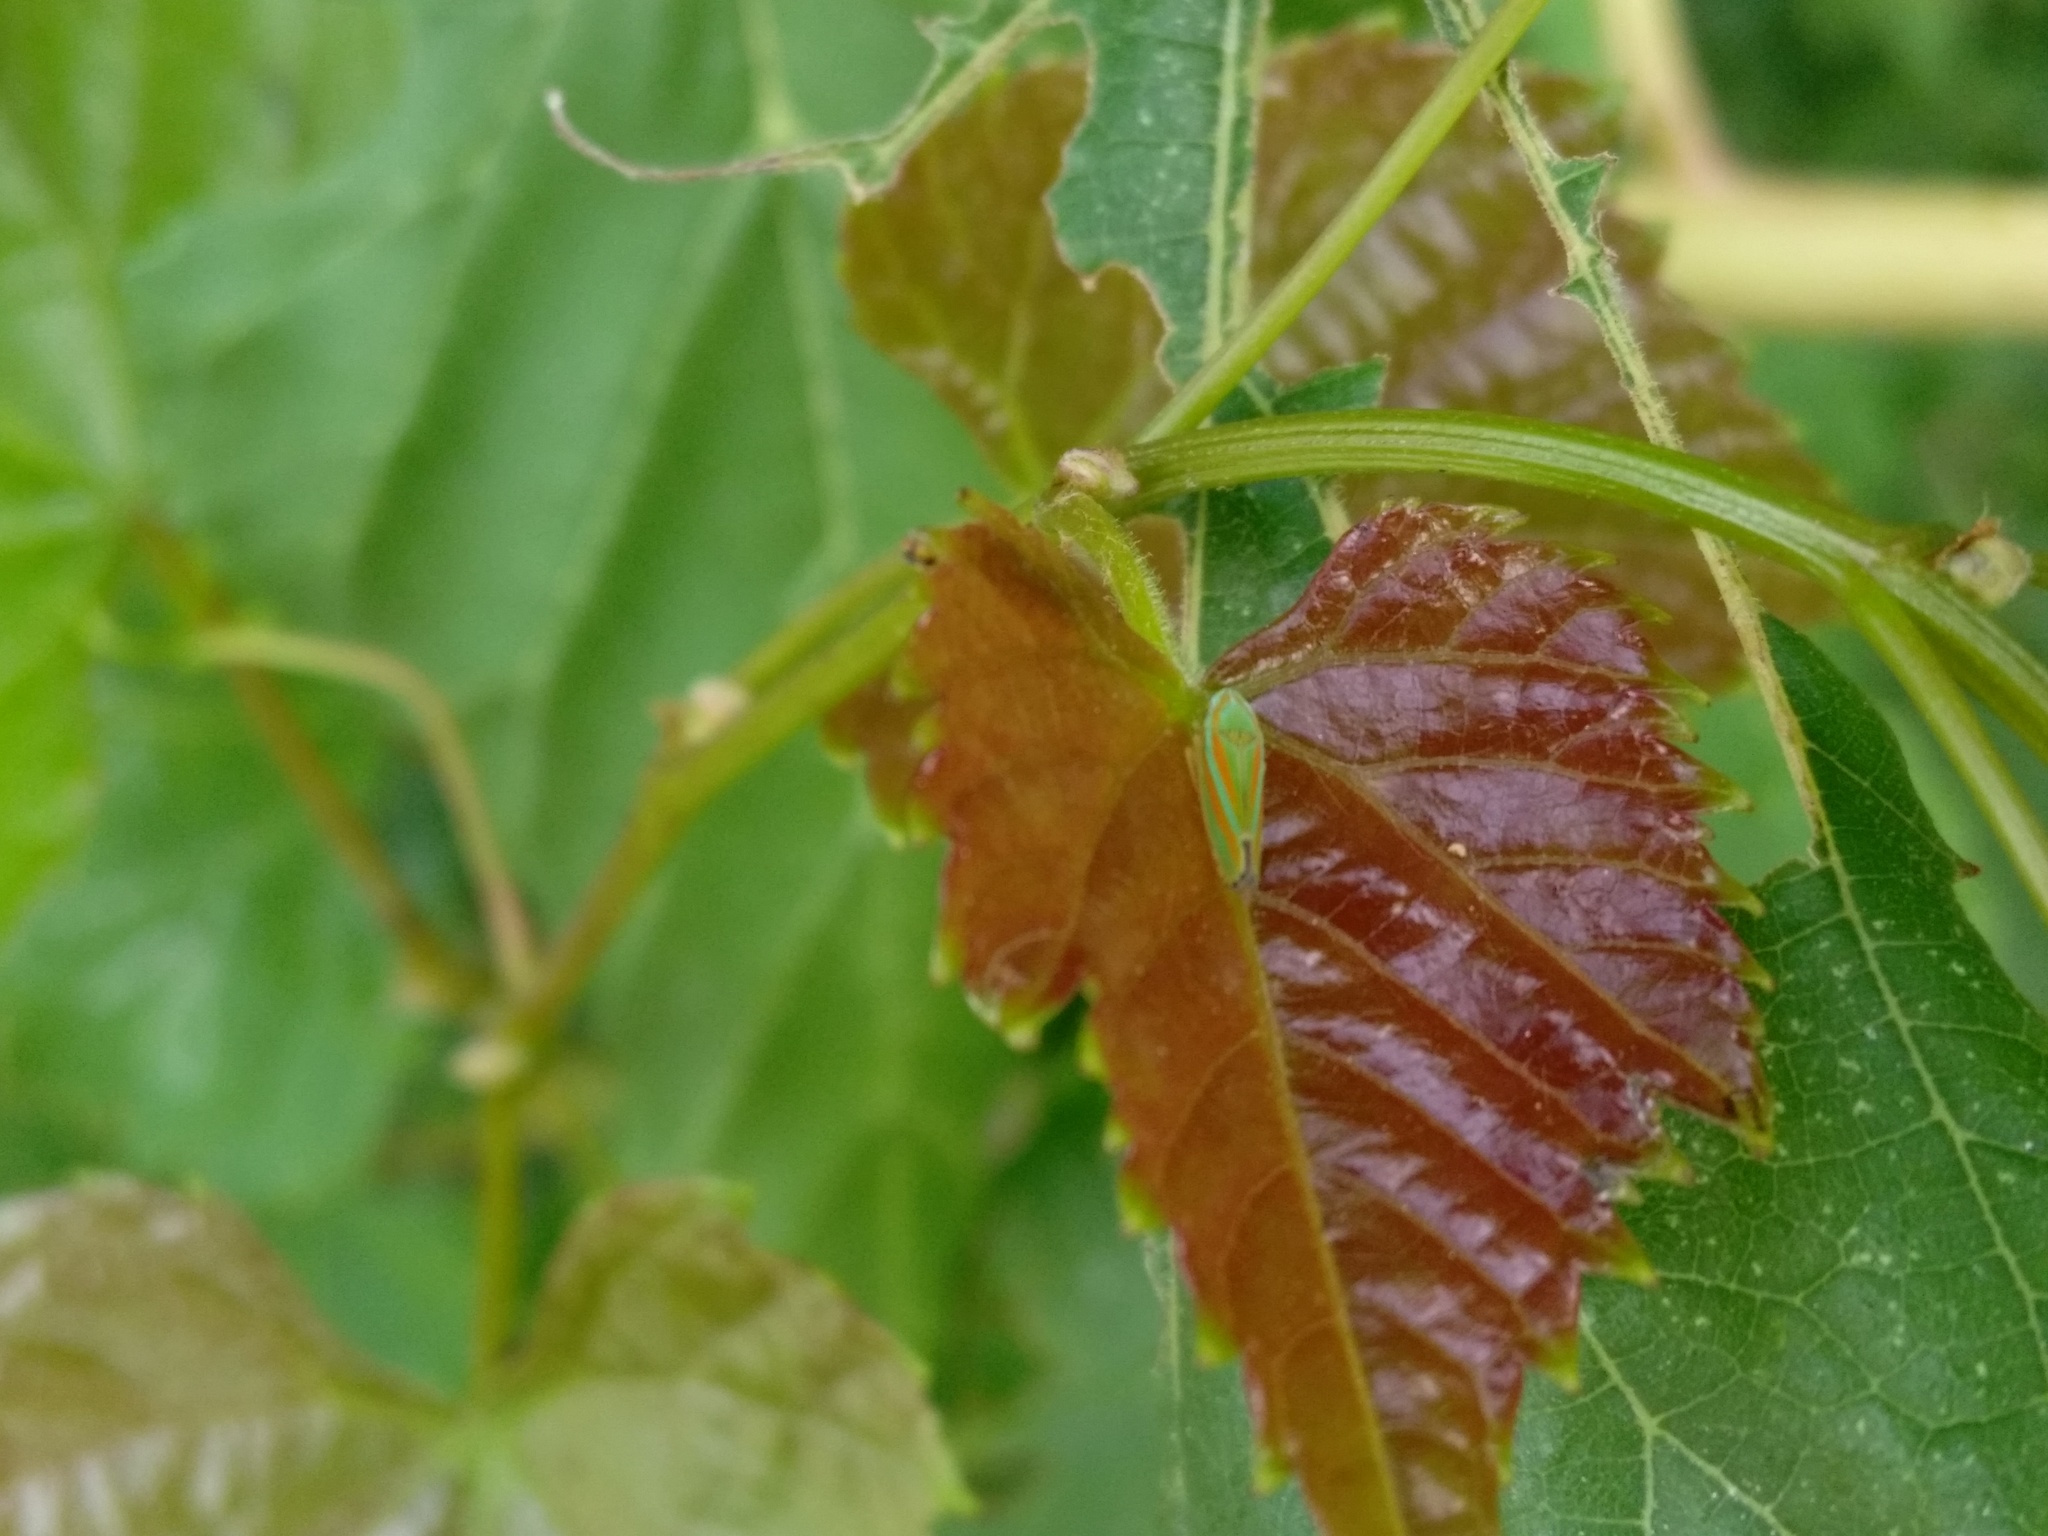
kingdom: Animalia
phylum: Arthropoda
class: Insecta
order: Hemiptera
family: Cicadellidae
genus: Graphocephala
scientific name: Graphocephala versuta
